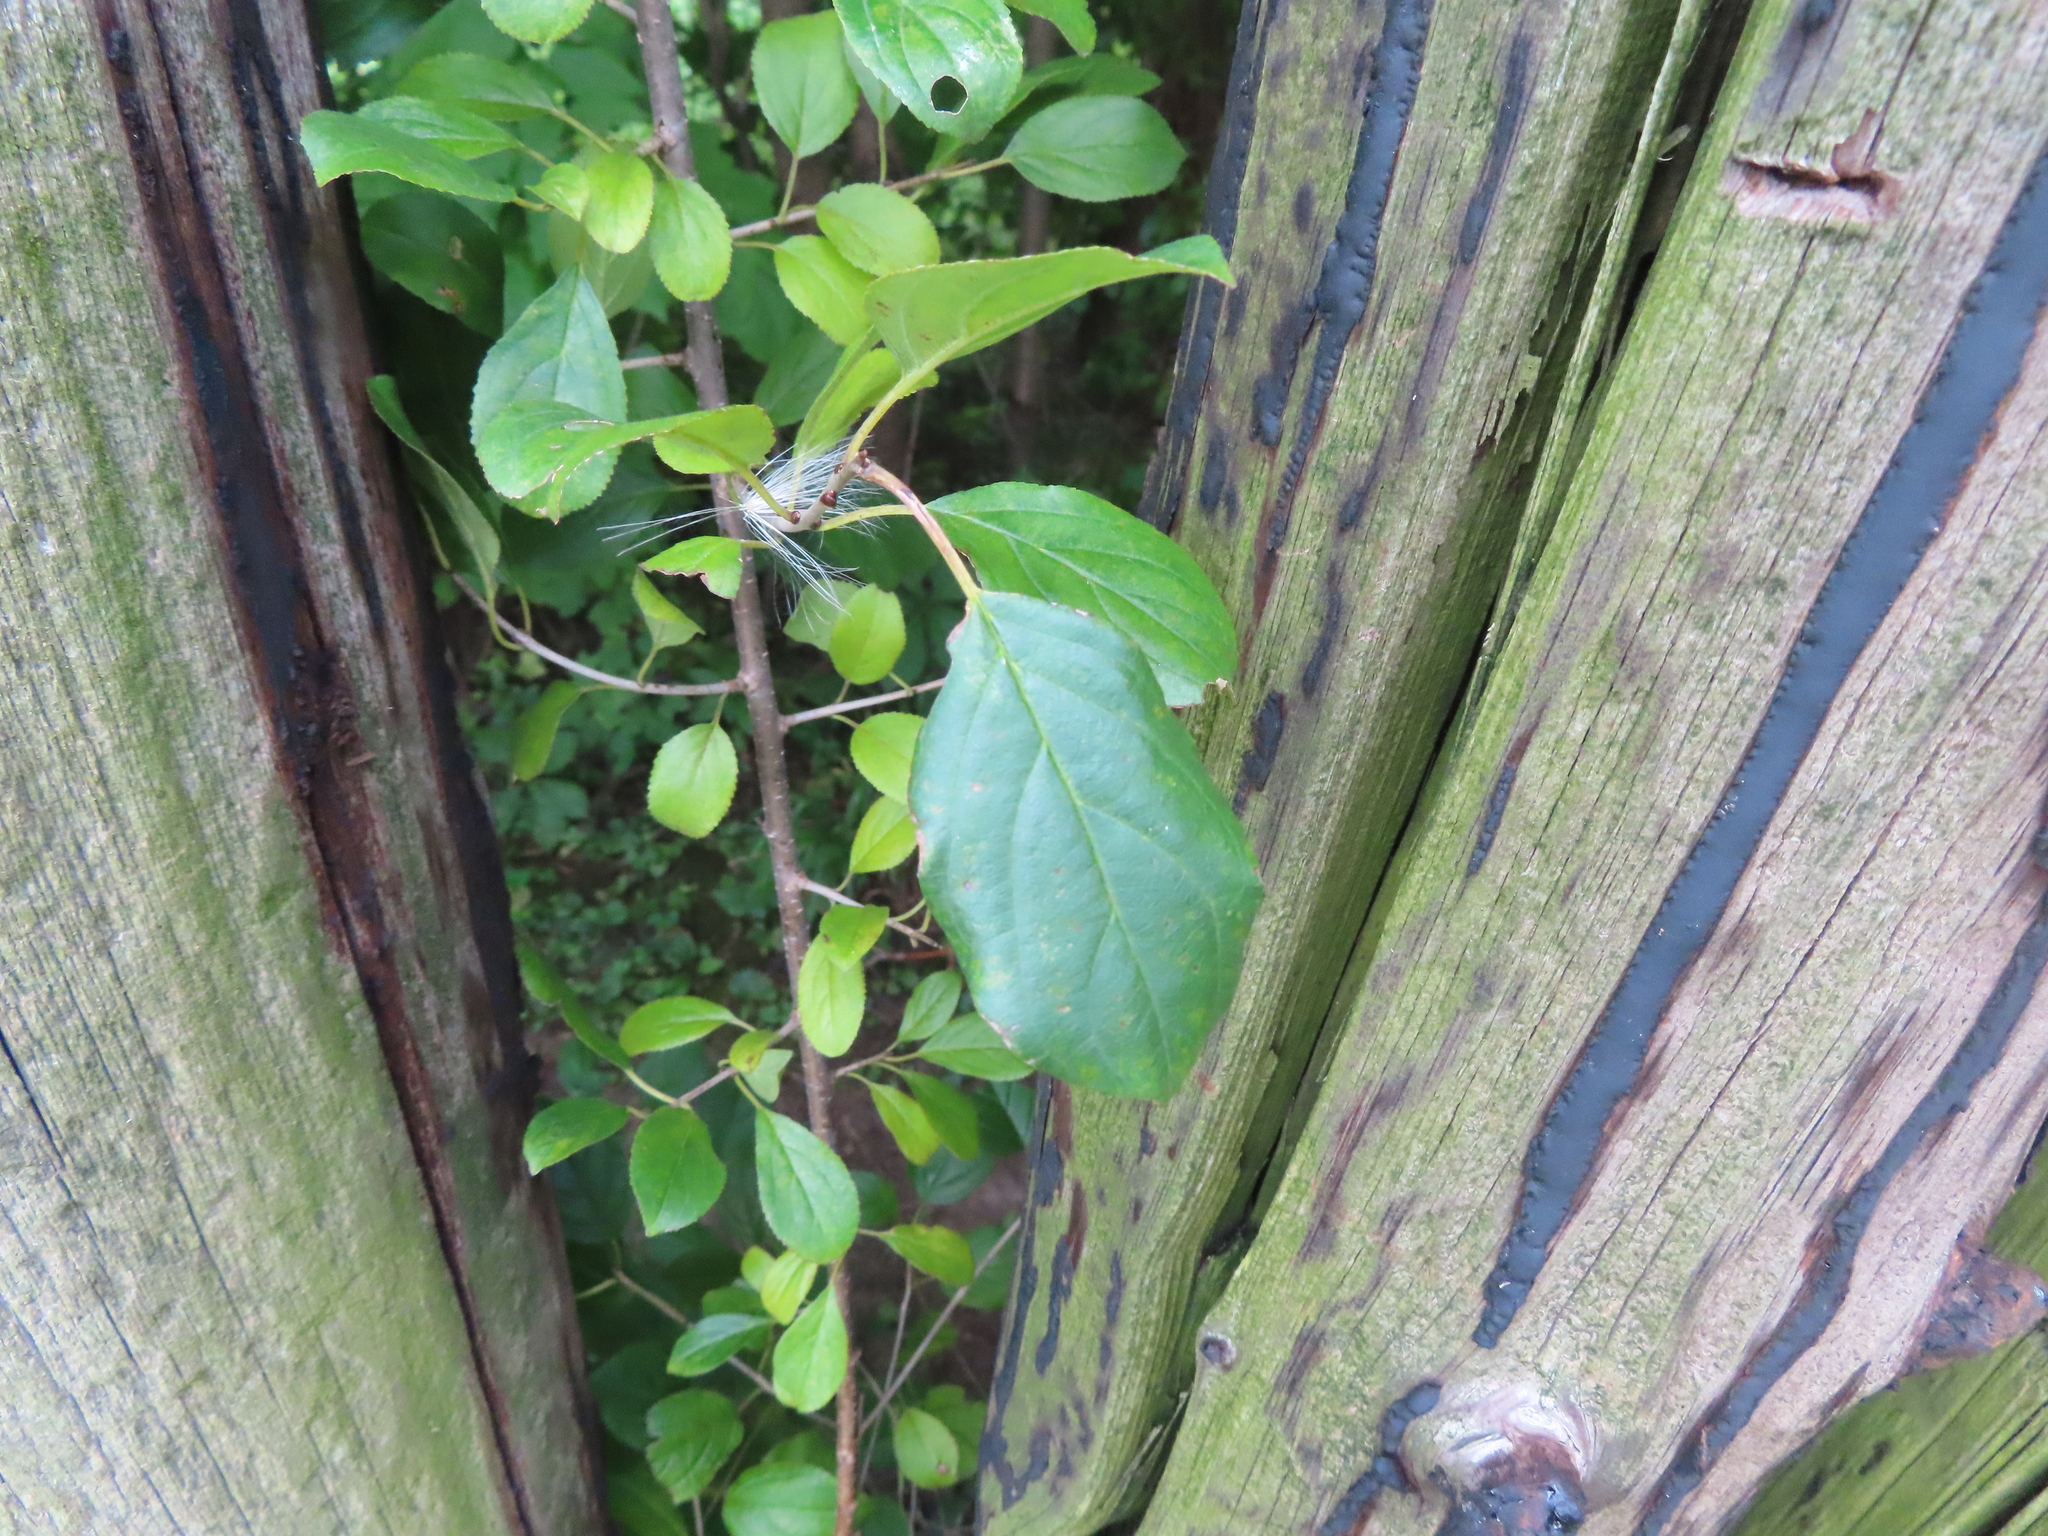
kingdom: Plantae
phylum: Tracheophyta
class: Magnoliopsida
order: Rosales
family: Rhamnaceae
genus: Rhamnus
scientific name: Rhamnus cathartica
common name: Common buckthorn
